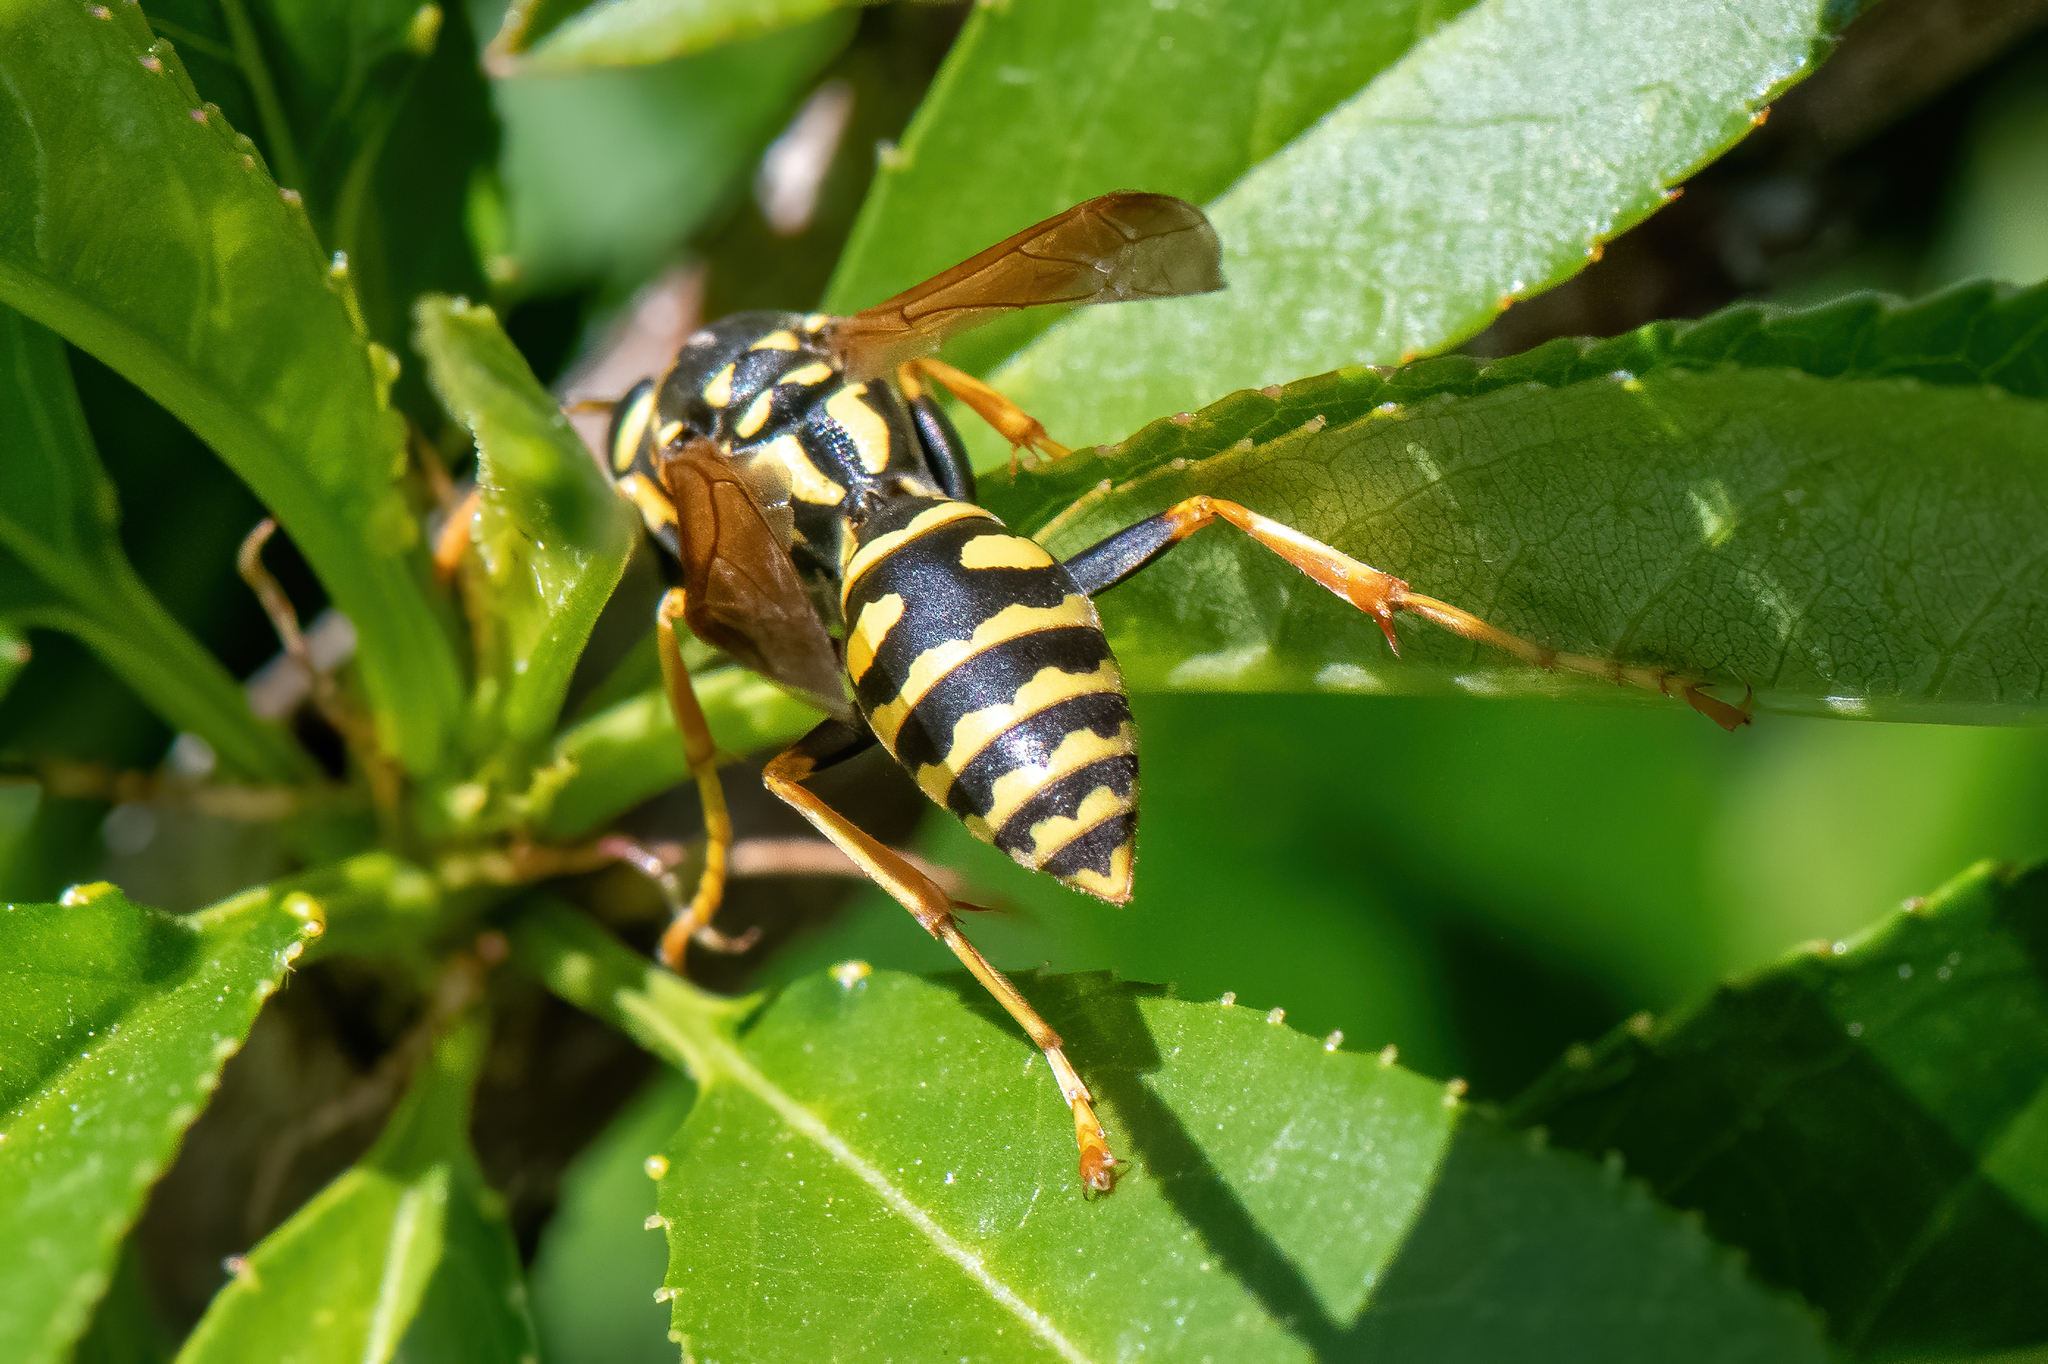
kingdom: Animalia
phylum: Arthropoda
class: Insecta
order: Hymenoptera
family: Eumenidae
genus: Polistes
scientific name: Polistes dominula
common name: Paper wasp
